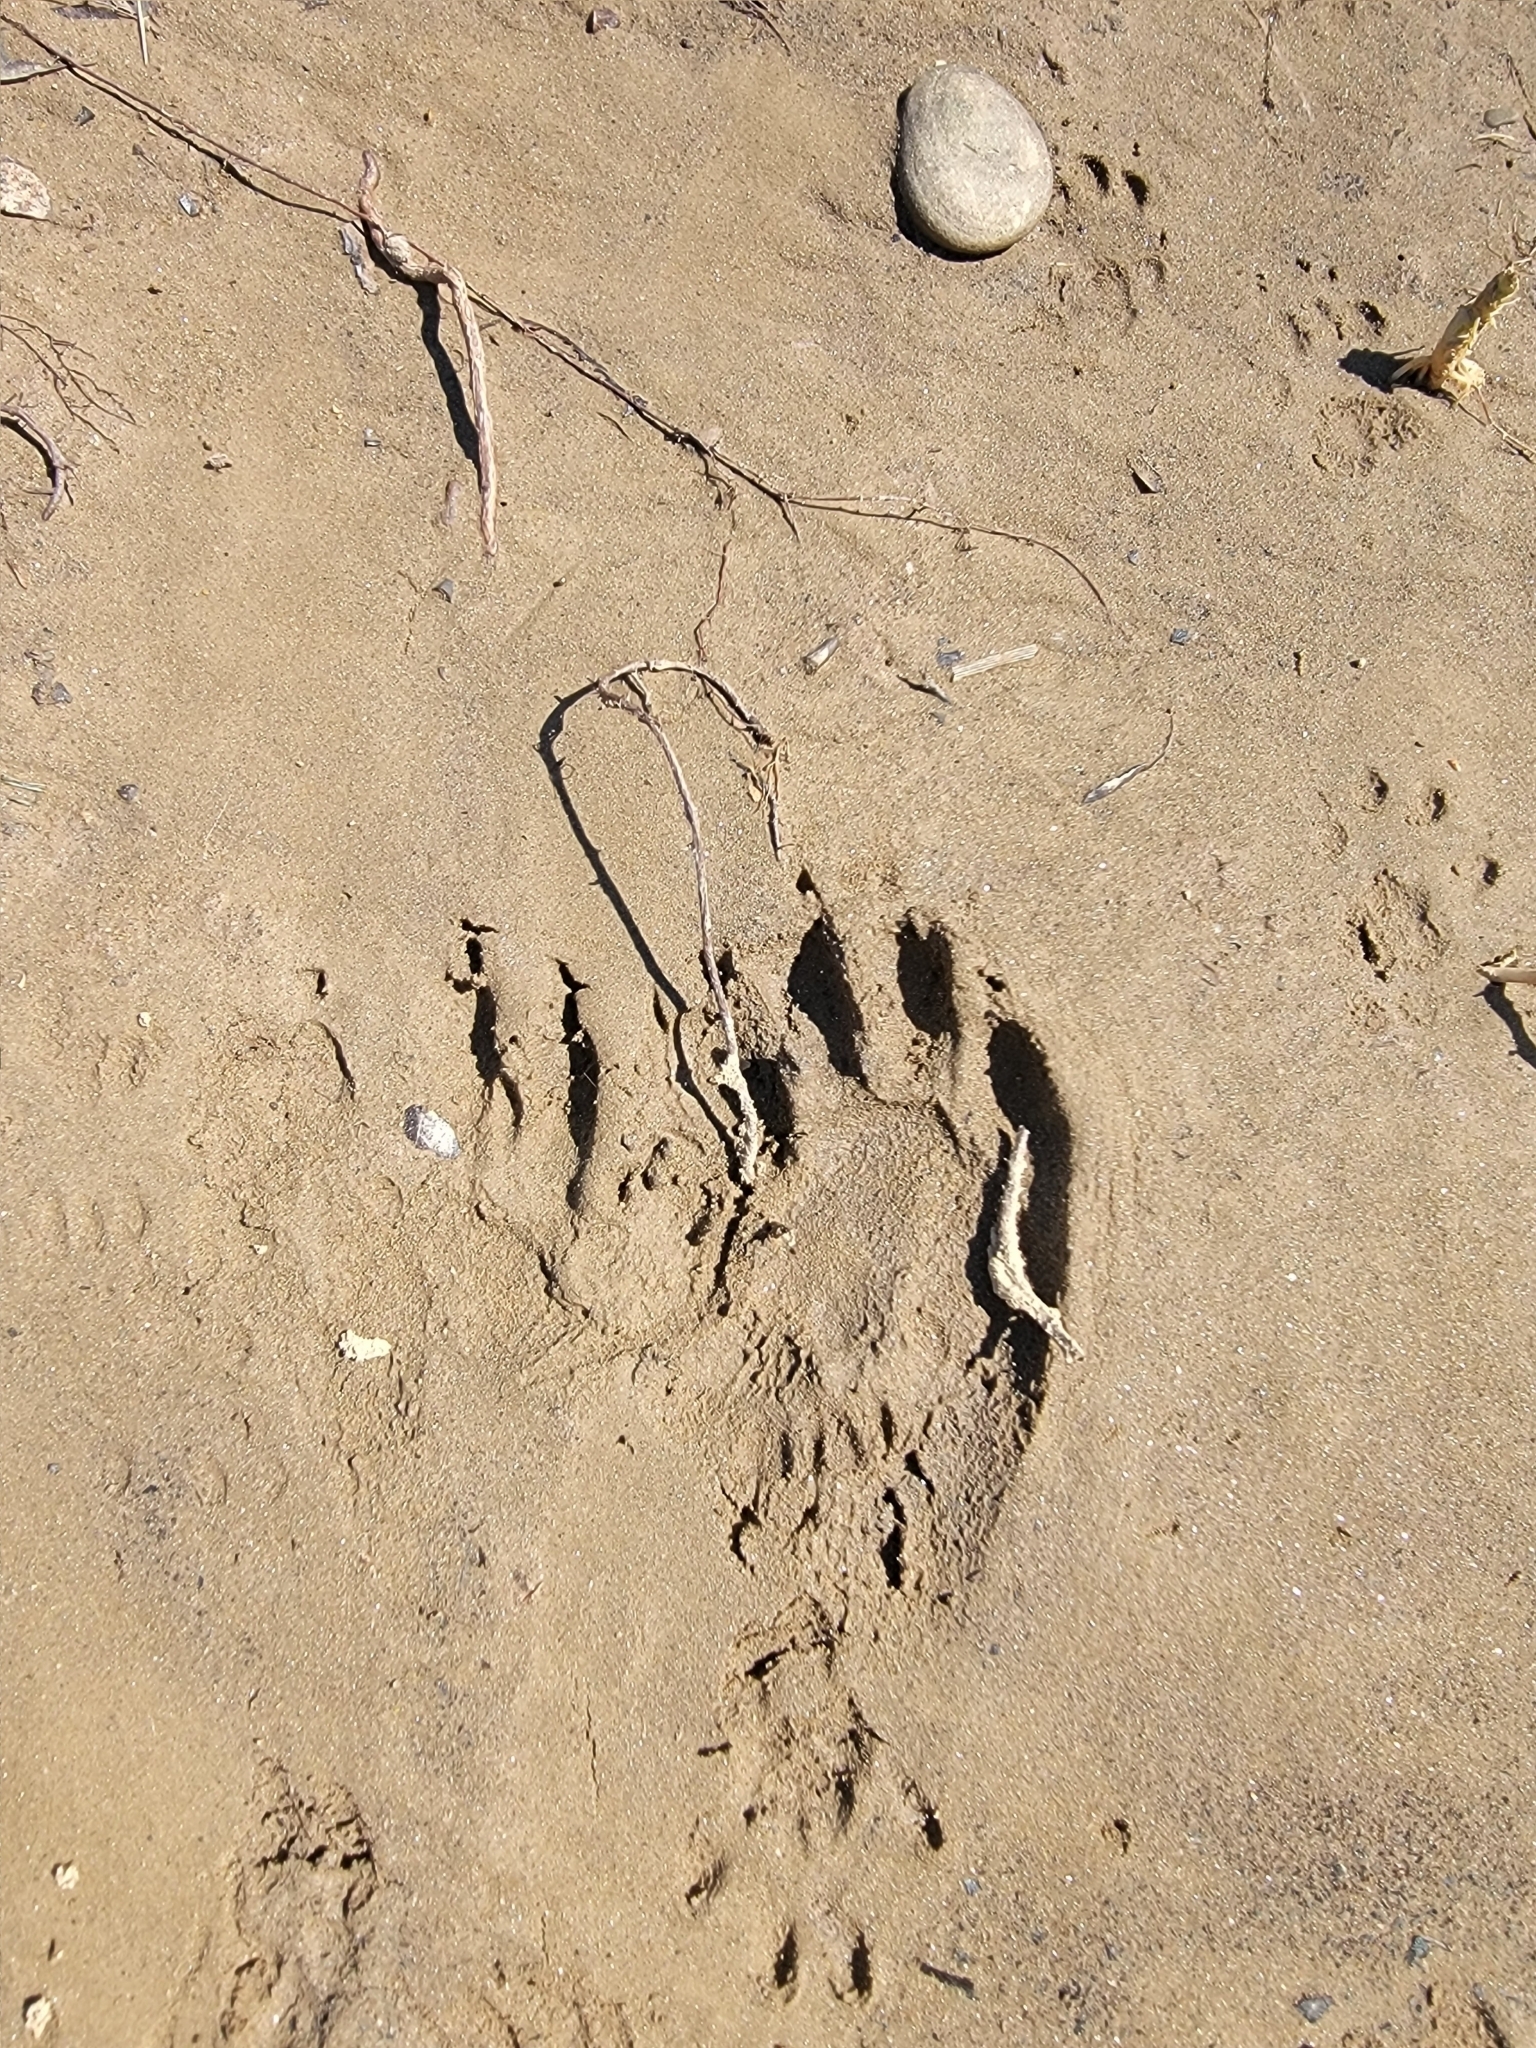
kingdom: Animalia
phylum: Chordata
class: Mammalia
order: Carnivora
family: Procyonidae
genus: Procyon
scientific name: Procyon lotor
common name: Raccoon
